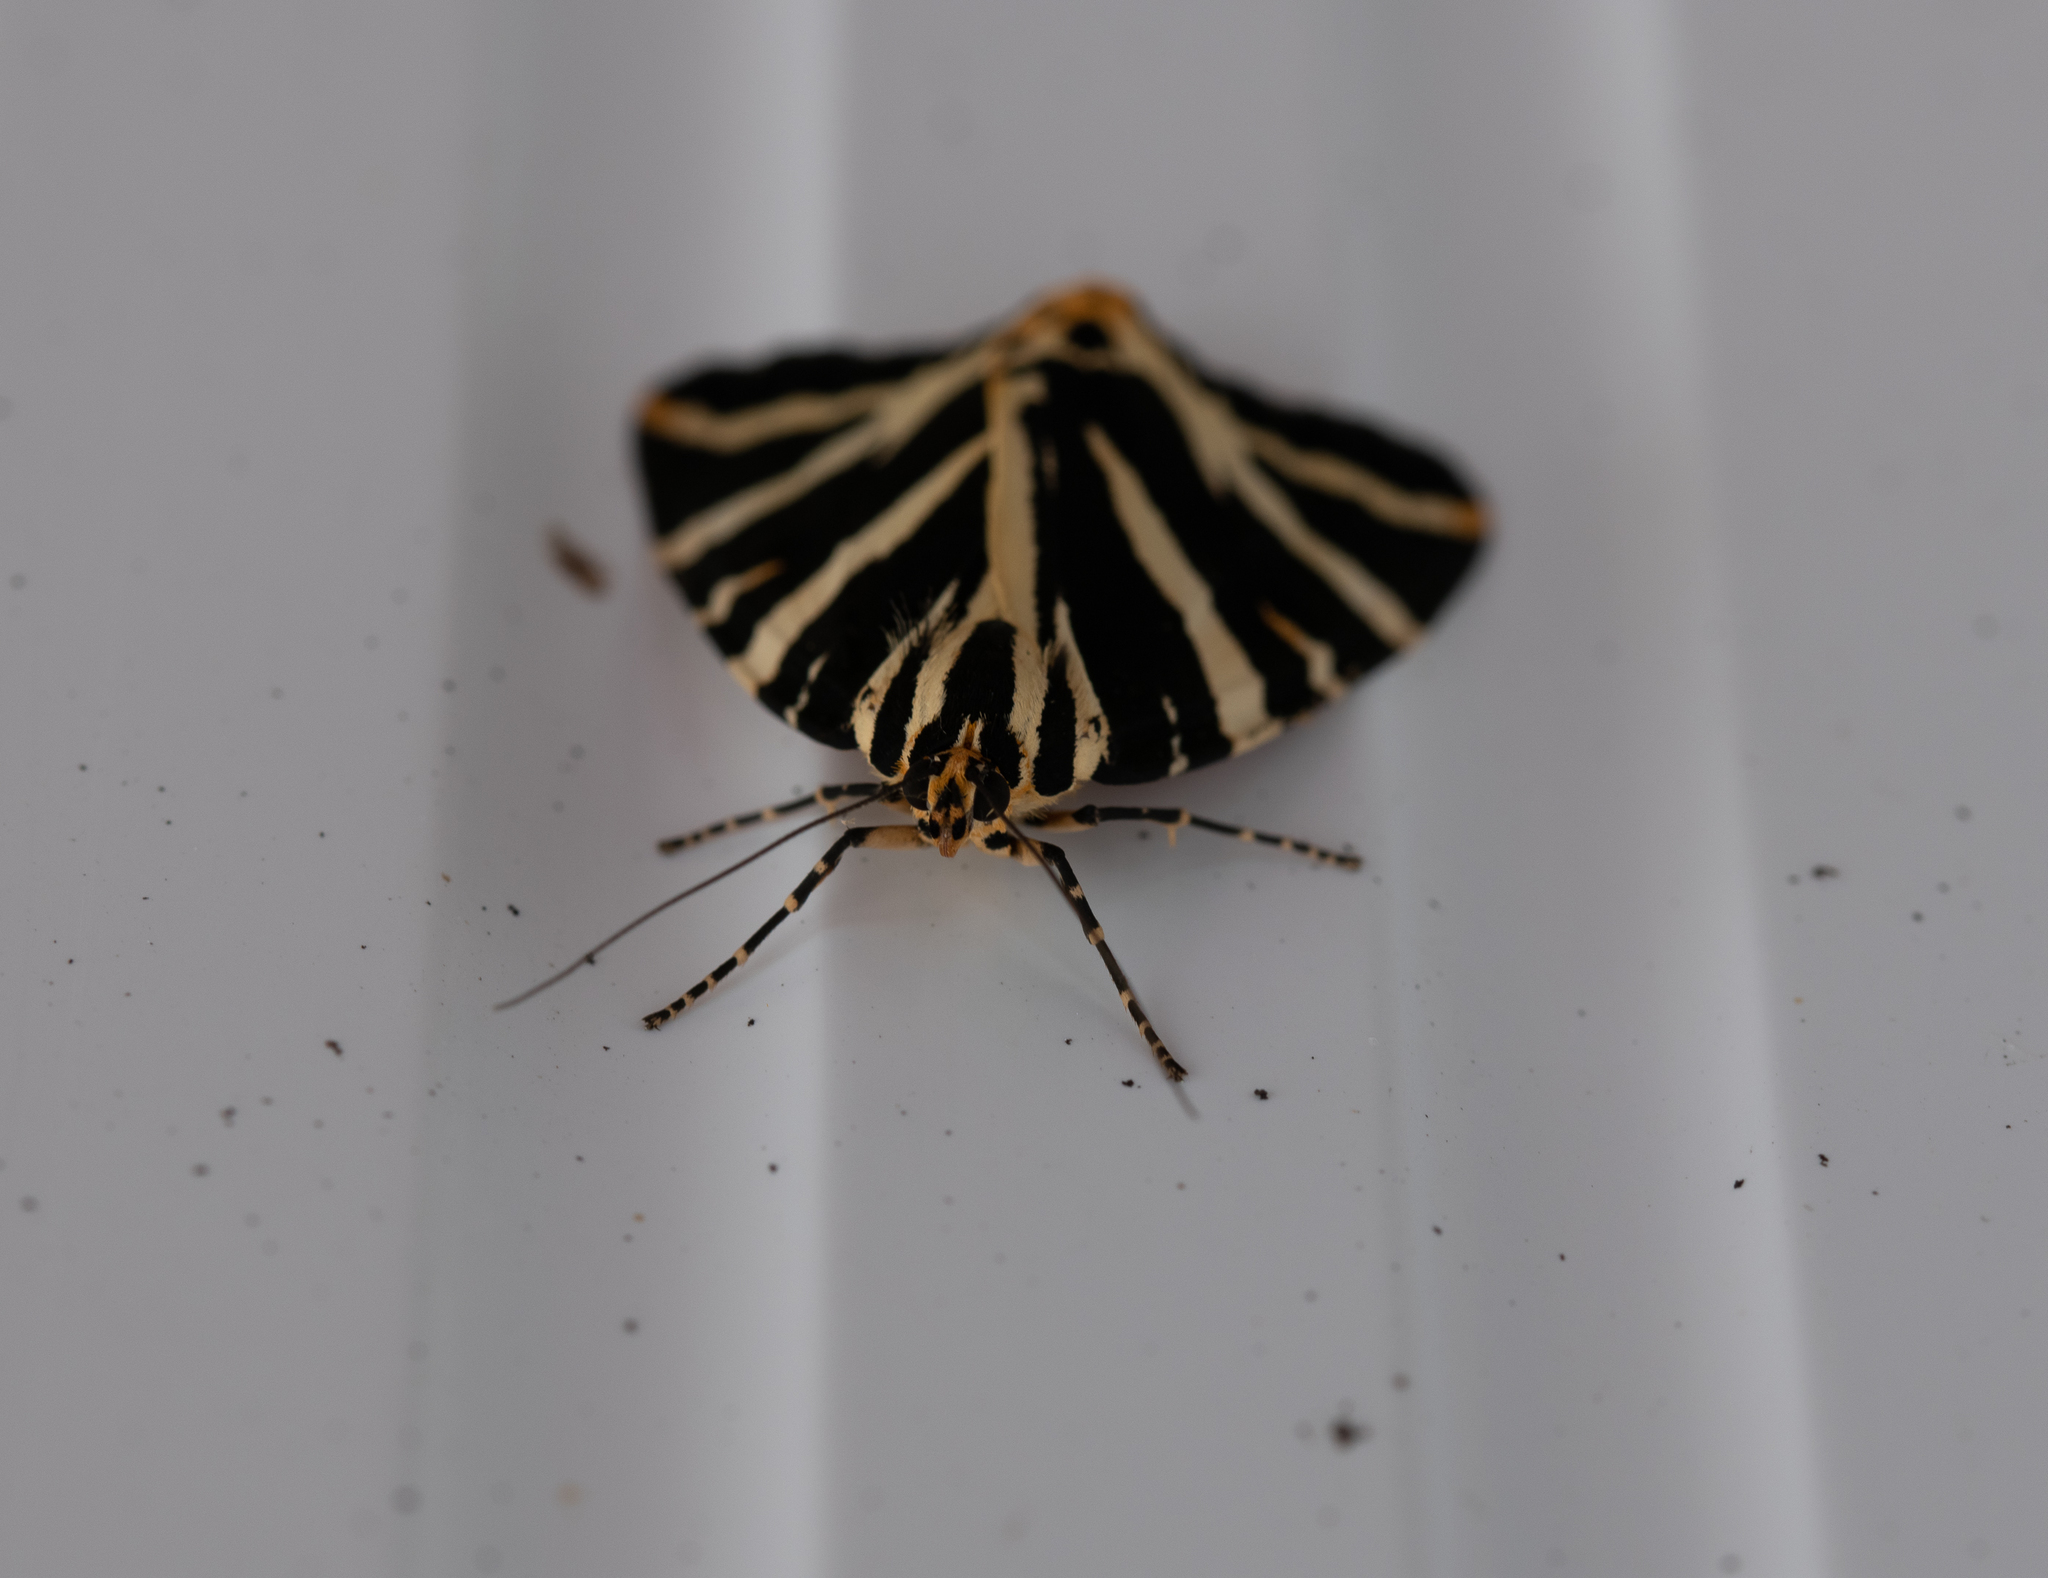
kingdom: Animalia
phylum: Arthropoda
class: Insecta
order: Lepidoptera
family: Erebidae
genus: Euplagia
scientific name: Euplagia quadripunctaria
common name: Jersey tiger
